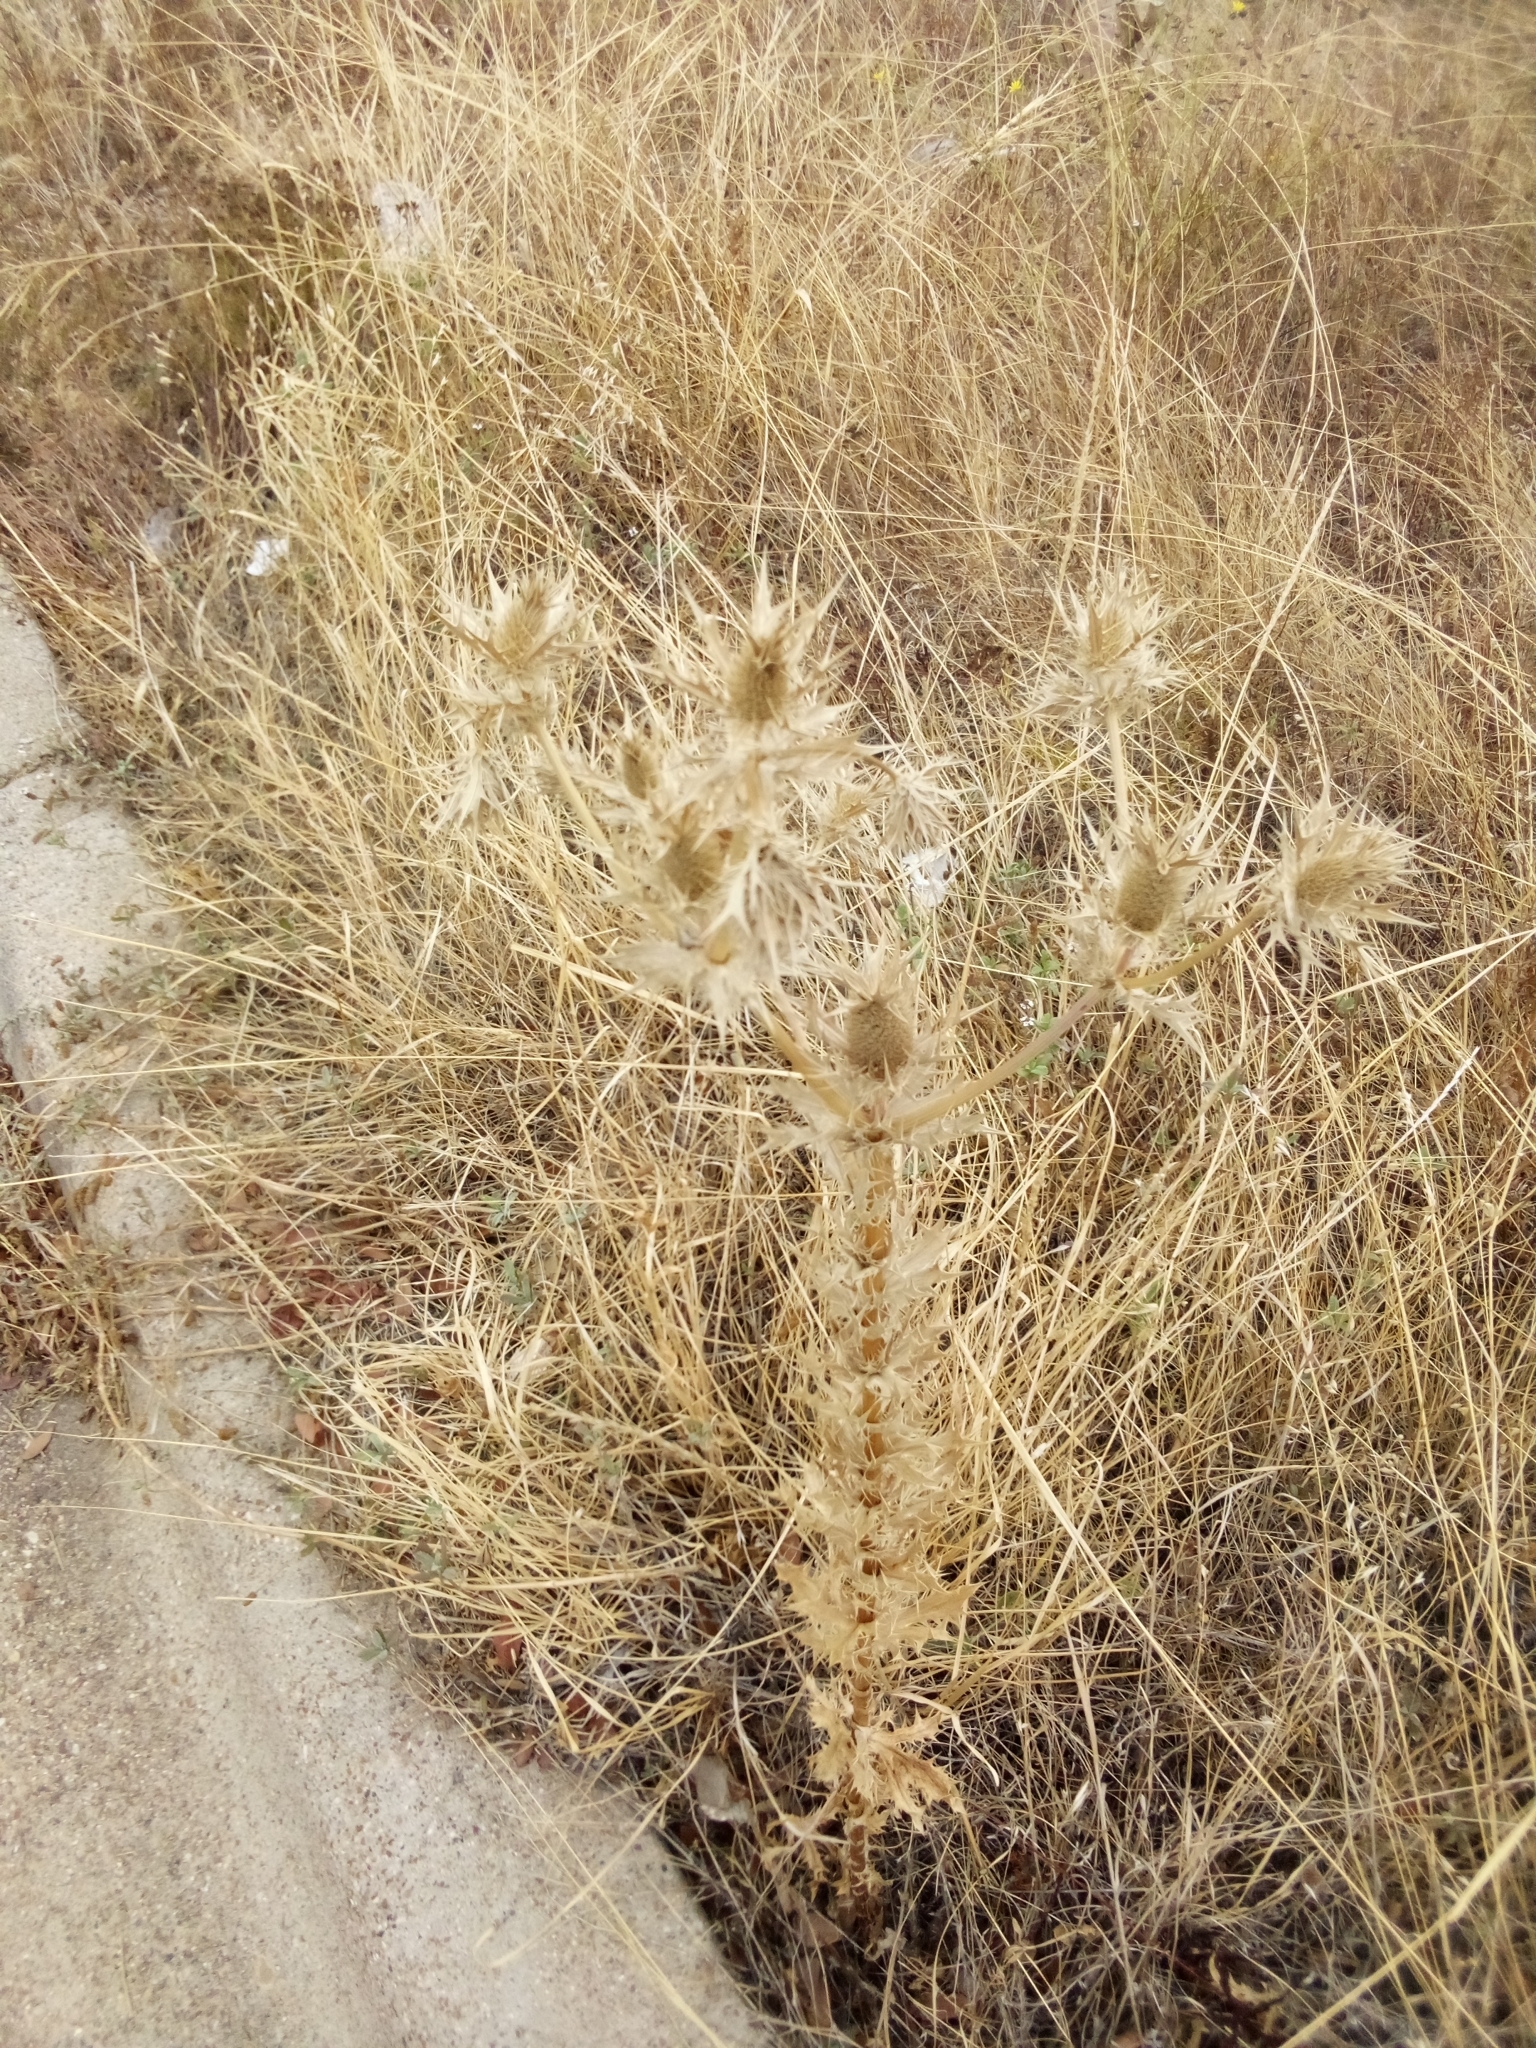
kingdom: Plantae
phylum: Tracheophyta
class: Magnoliopsida
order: Apiales
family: Apiaceae
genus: Eryngium
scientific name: Eryngium leavenworthii
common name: Leavenworth's eryngo
